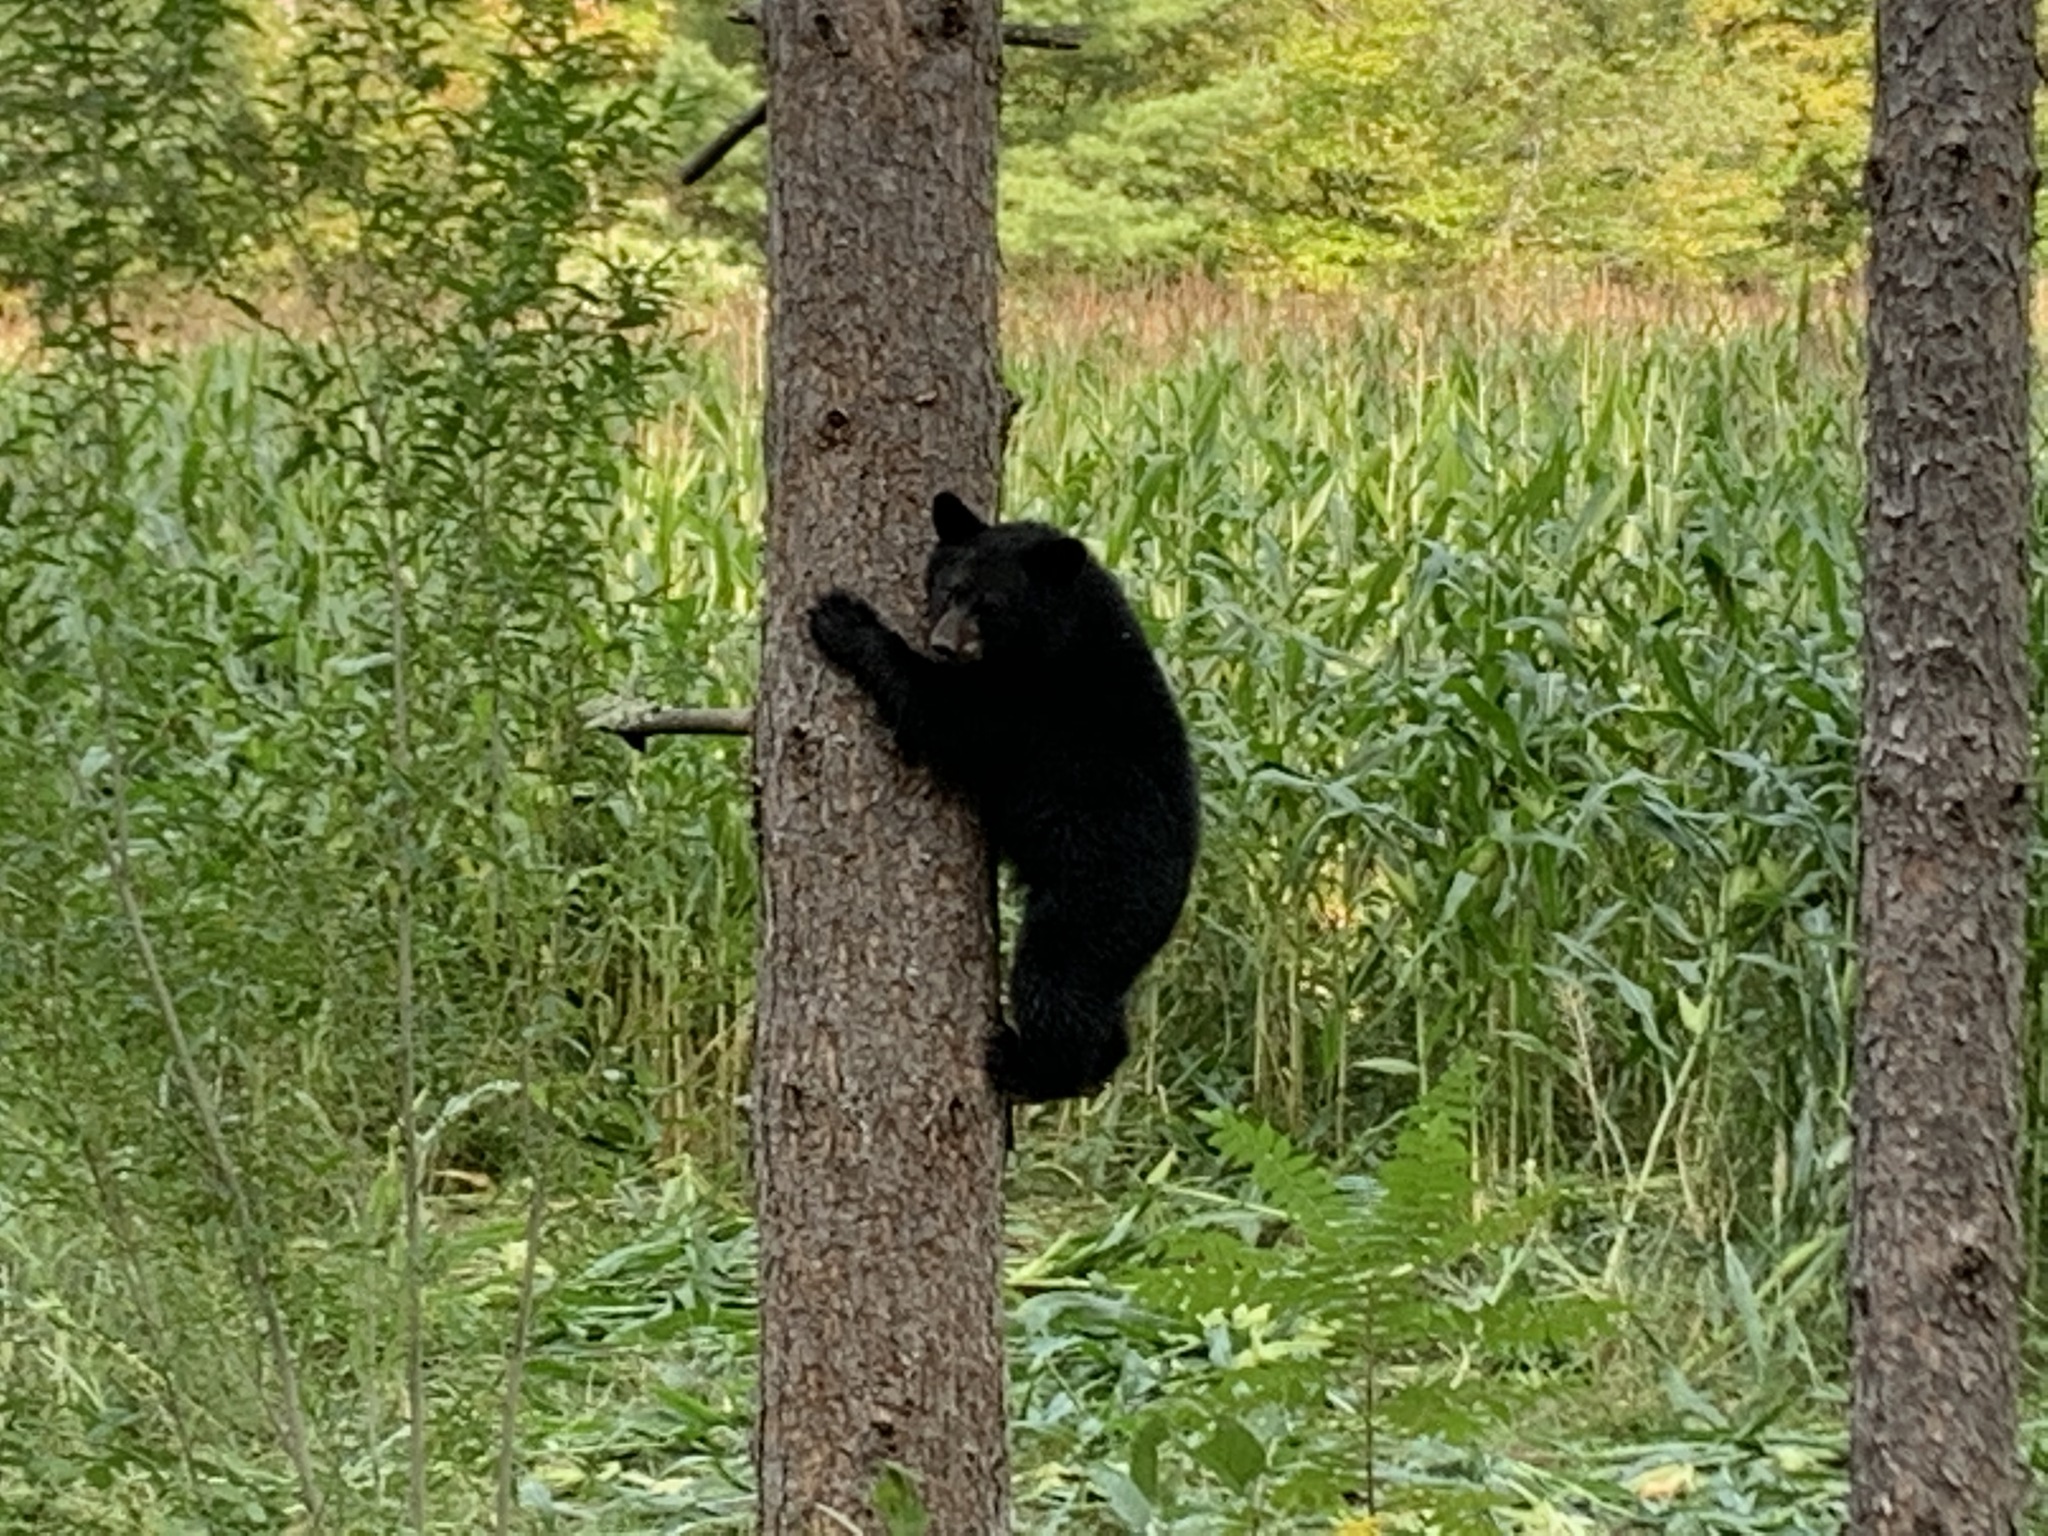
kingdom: Animalia
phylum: Chordata
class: Mammalia
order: Carnivora
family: Ursidae
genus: Ursus
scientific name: Ursus americanus
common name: American black bear
